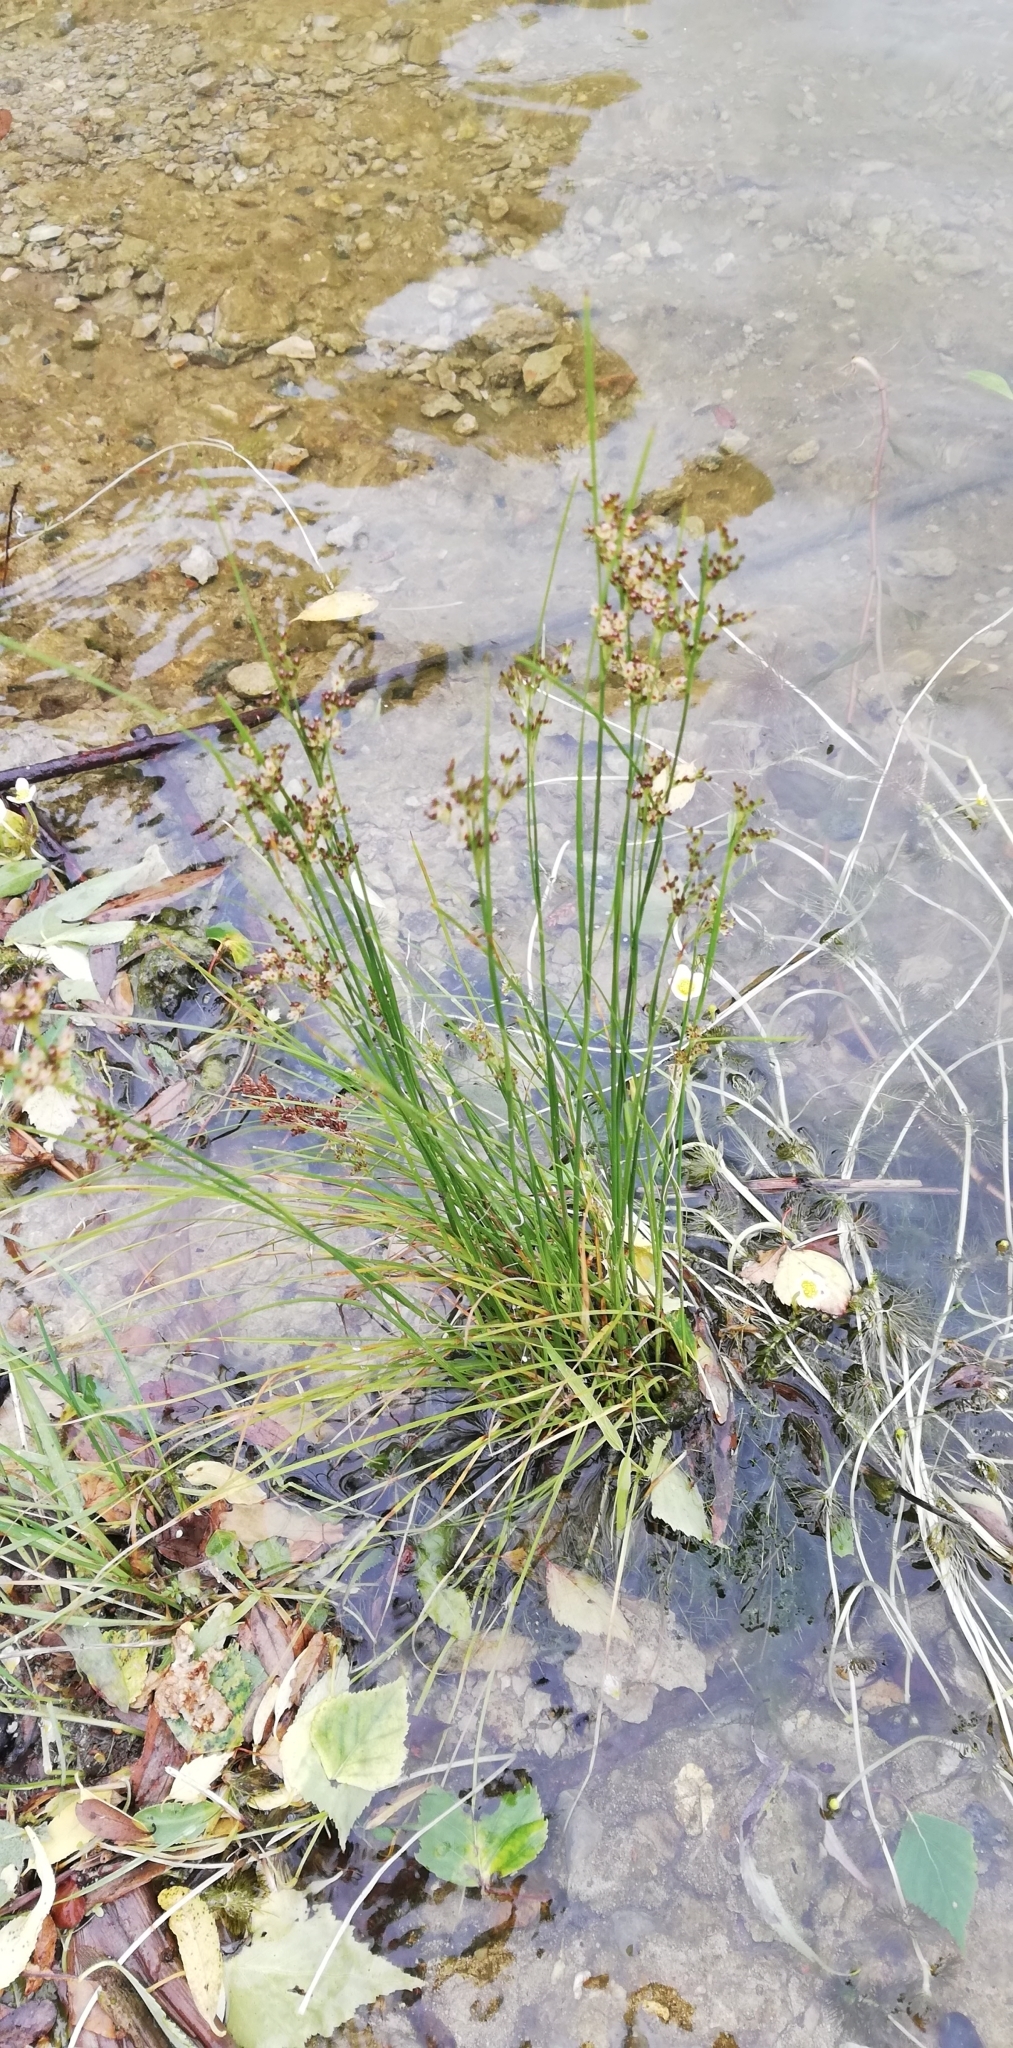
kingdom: Plantae
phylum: Tracheophyta
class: Liliopsida
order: Poales
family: Juncaceae
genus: Juncus
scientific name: Juncus compressus
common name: Round-fruited rush
